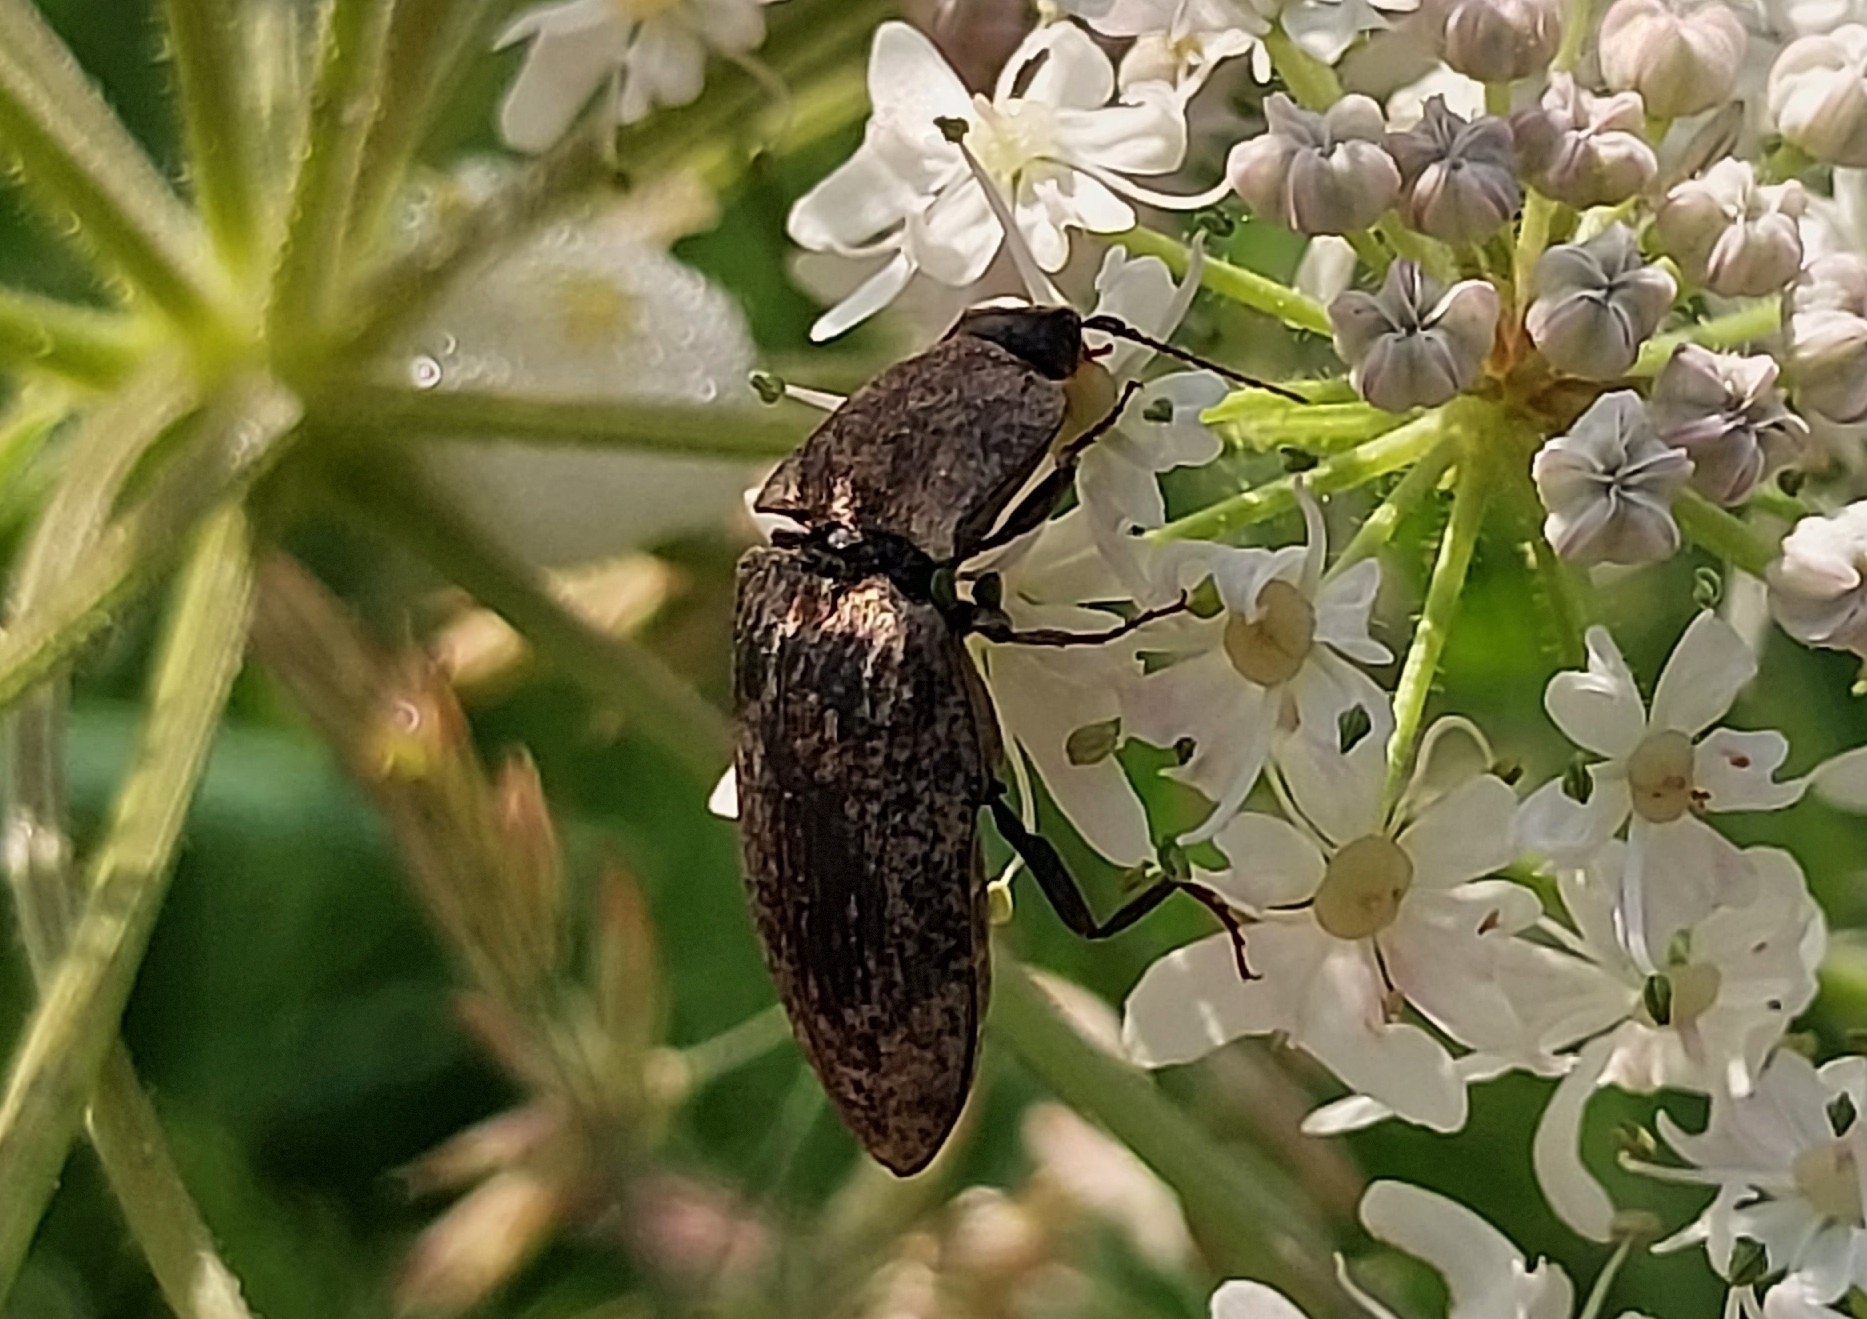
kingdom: Animalia
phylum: Arthropoda
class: Insecta
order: Coleoptera
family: Elateridae
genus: Agrypnus
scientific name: Agrypnus murinus
